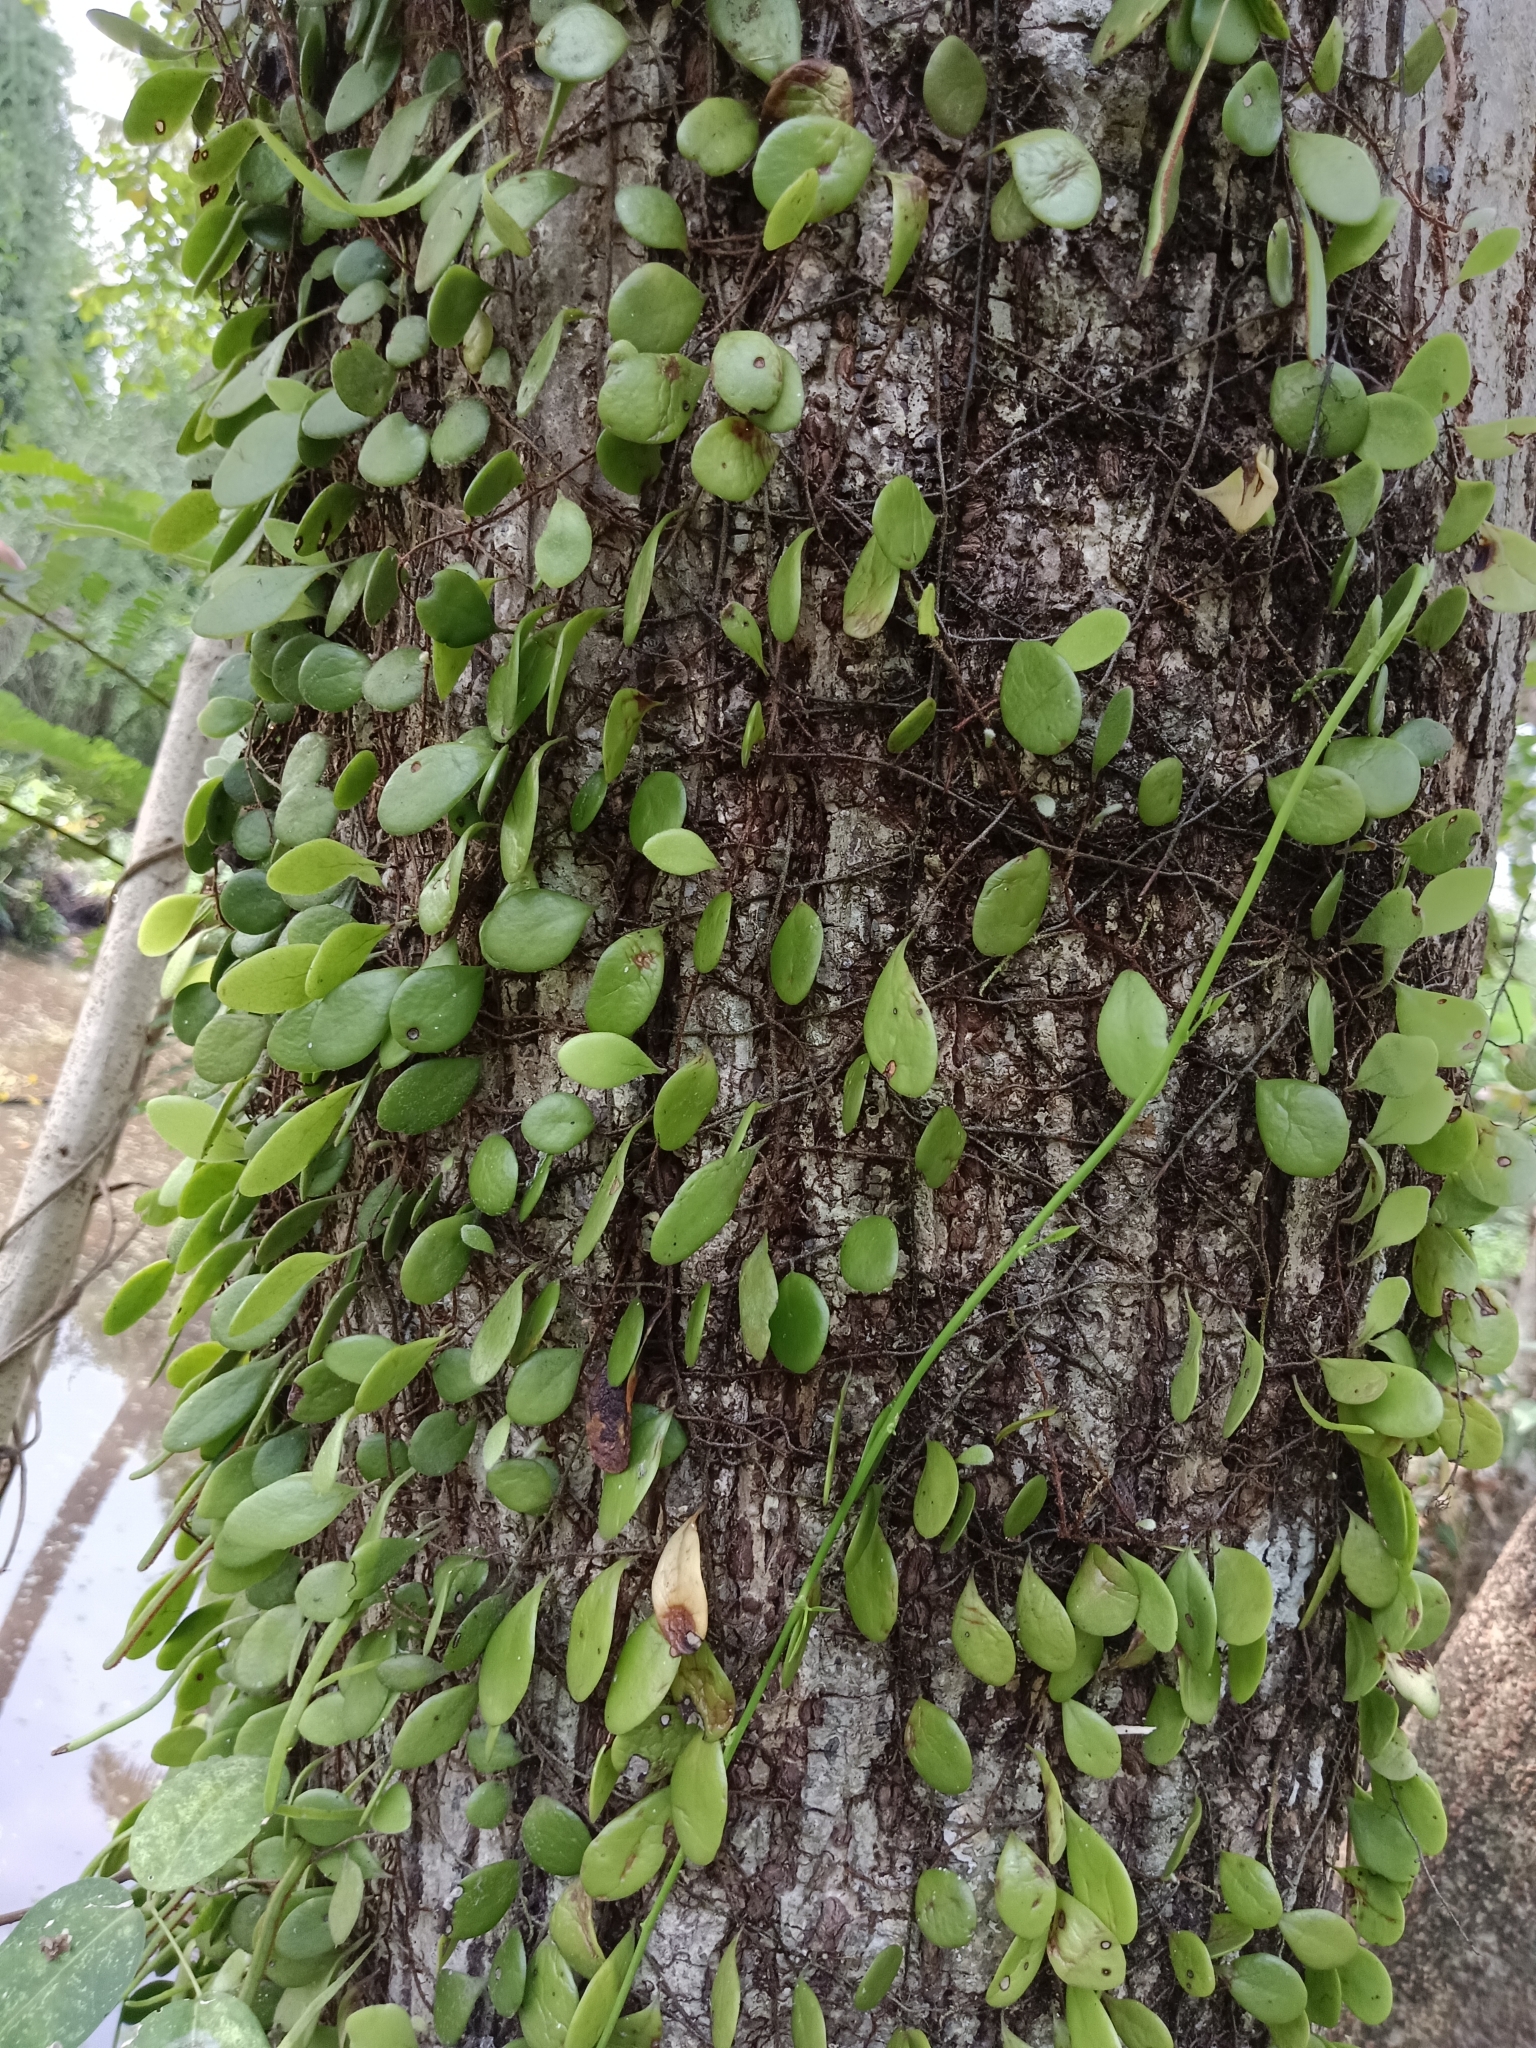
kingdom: Plantae
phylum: Tracheophyta
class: Polypodiopsida
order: Polypodiales
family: Polypodiaceae
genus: Pyrrosia
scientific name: Pyrrosia piloselloides
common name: Epiphytic creeping fern
